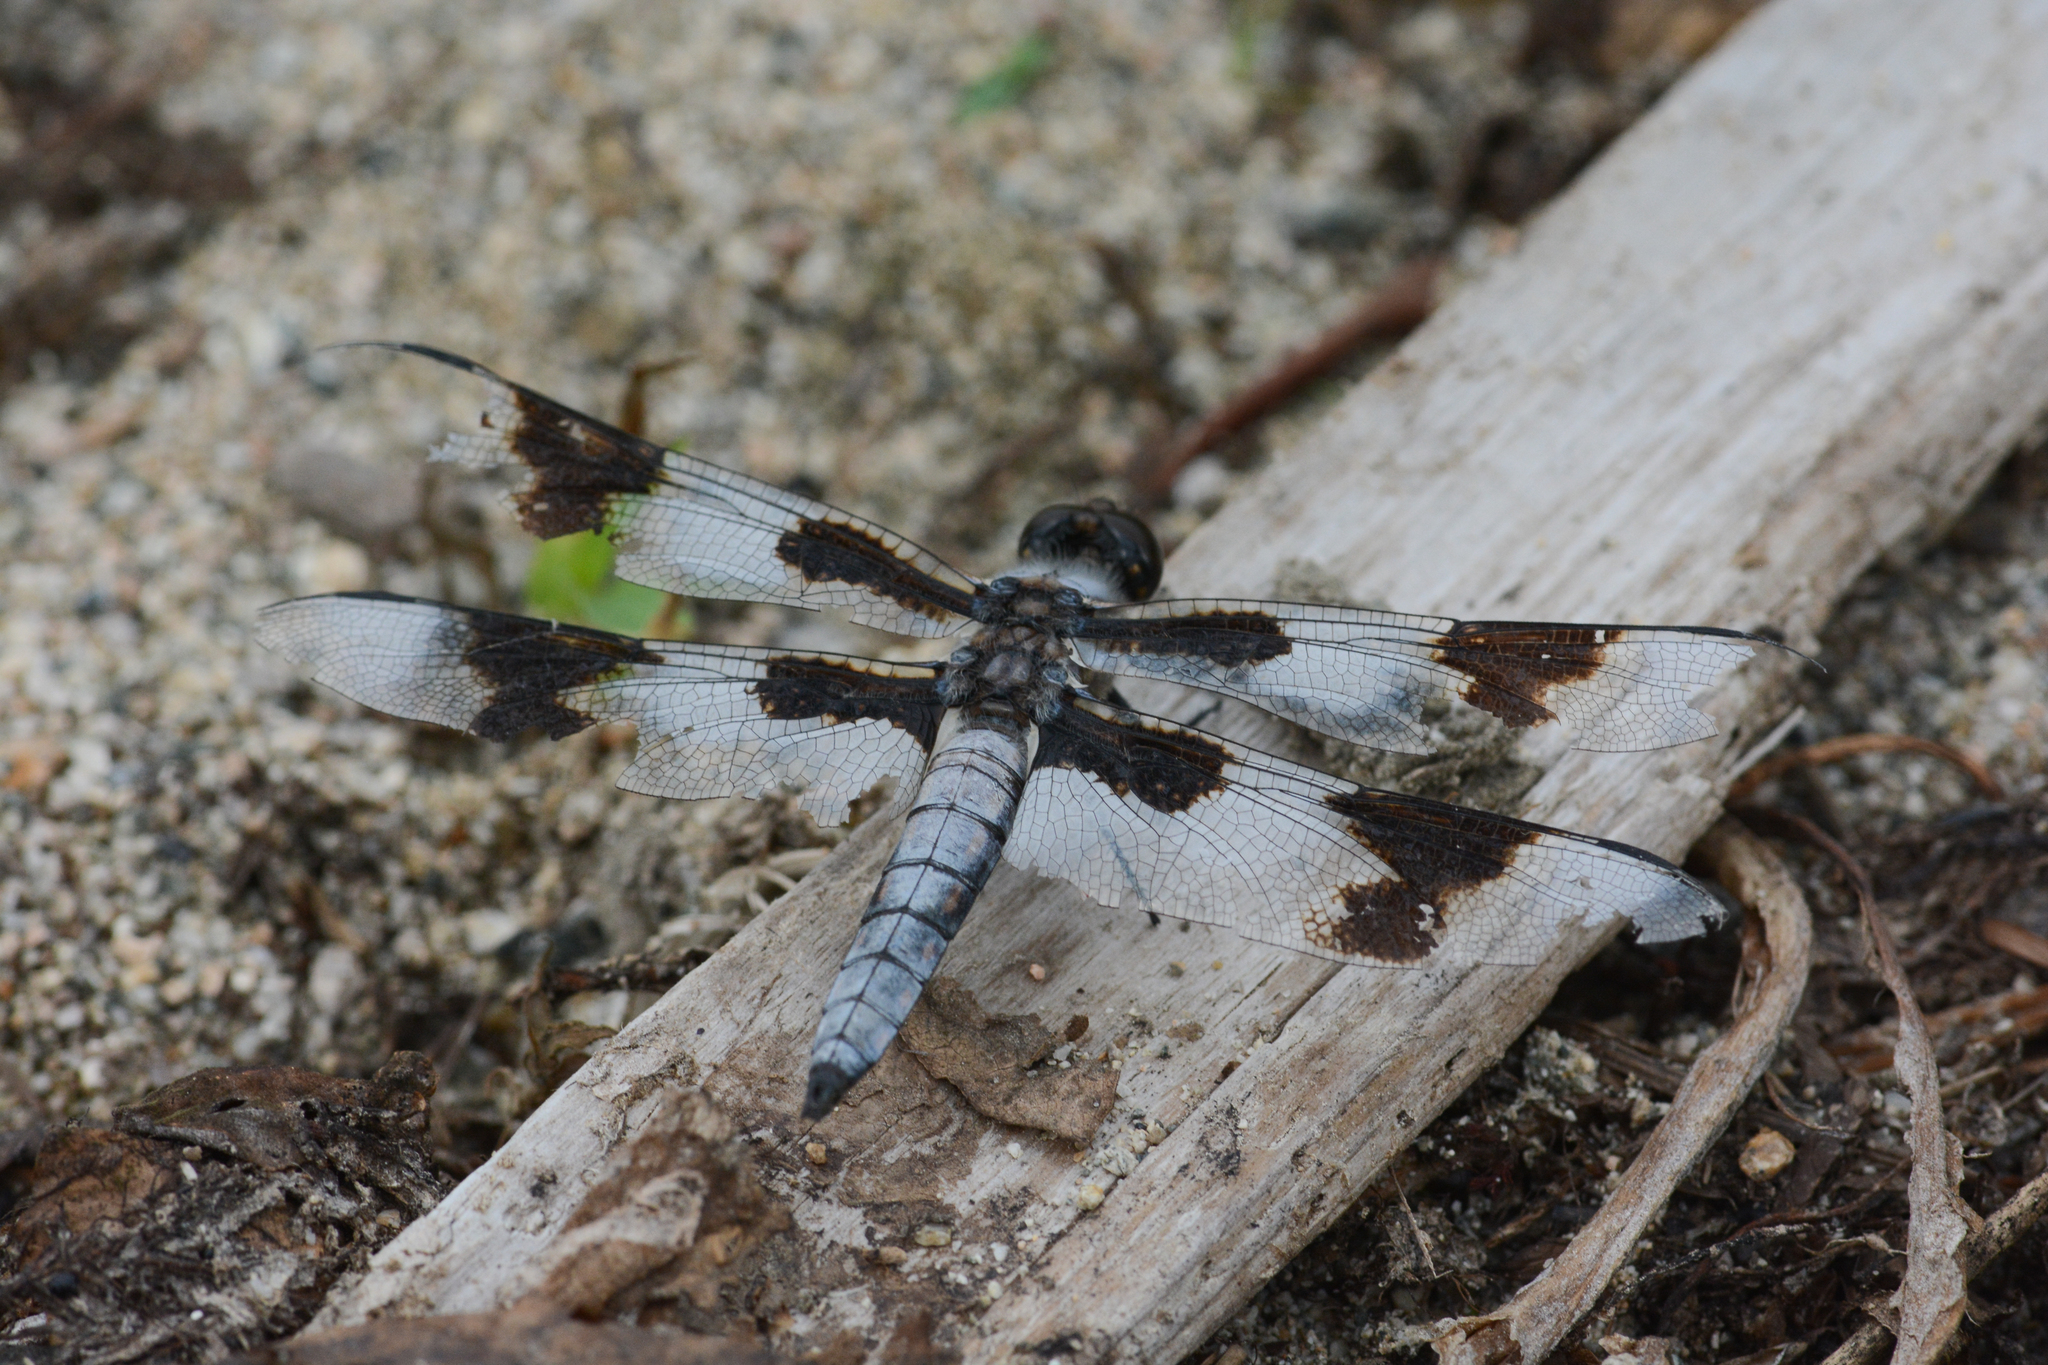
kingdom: Animalia
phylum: Arthropoda
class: Insecta
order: Odonata
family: Libellulidae
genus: Libellula
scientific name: Libellula forensis
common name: Eight-spotted skimmer
